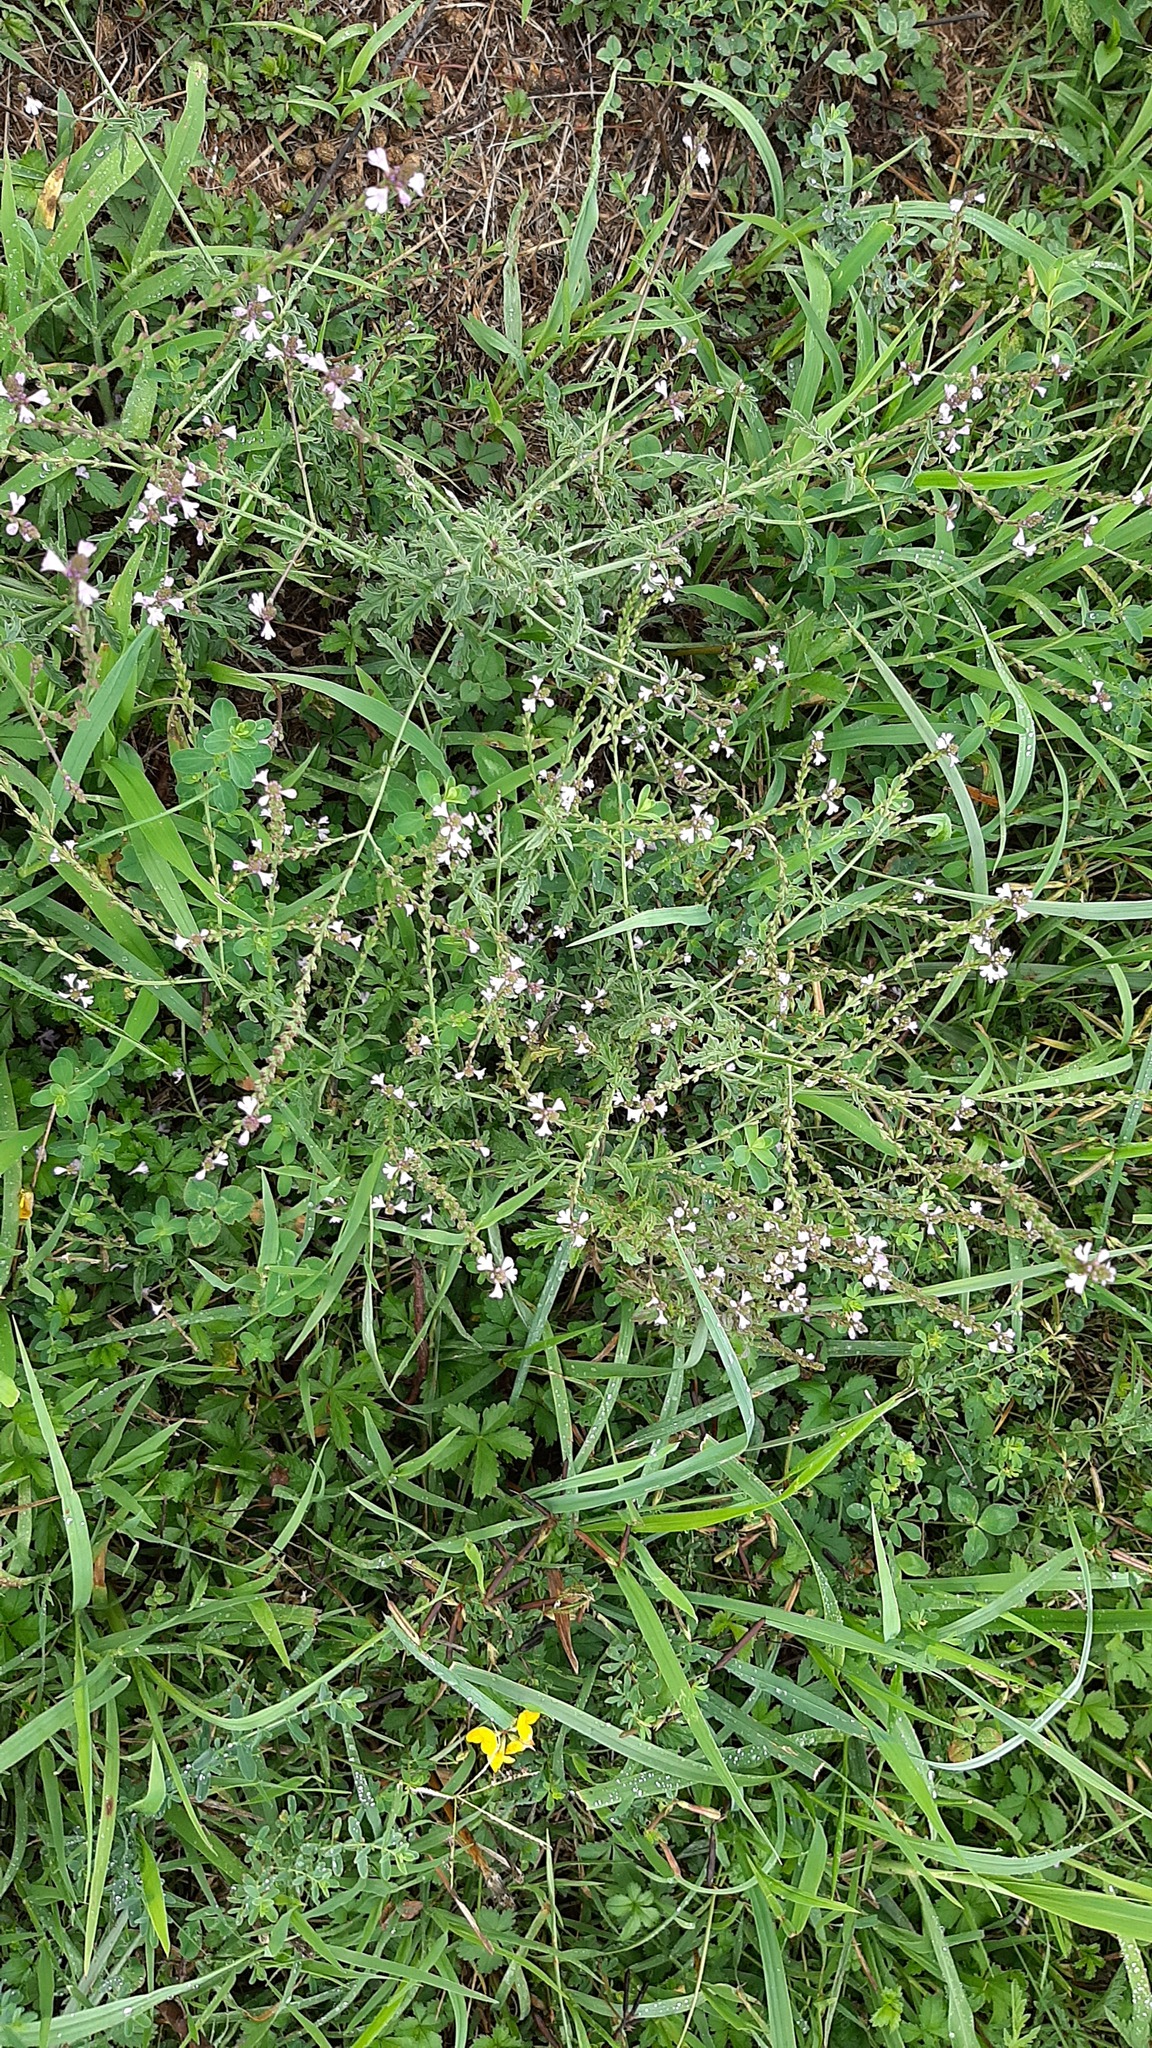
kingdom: Plantae
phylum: Tracheophyta
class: Magnoliopsida
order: Fabales
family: Fabaceae
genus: Trifolium
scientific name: Trifolium repens
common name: White clover
